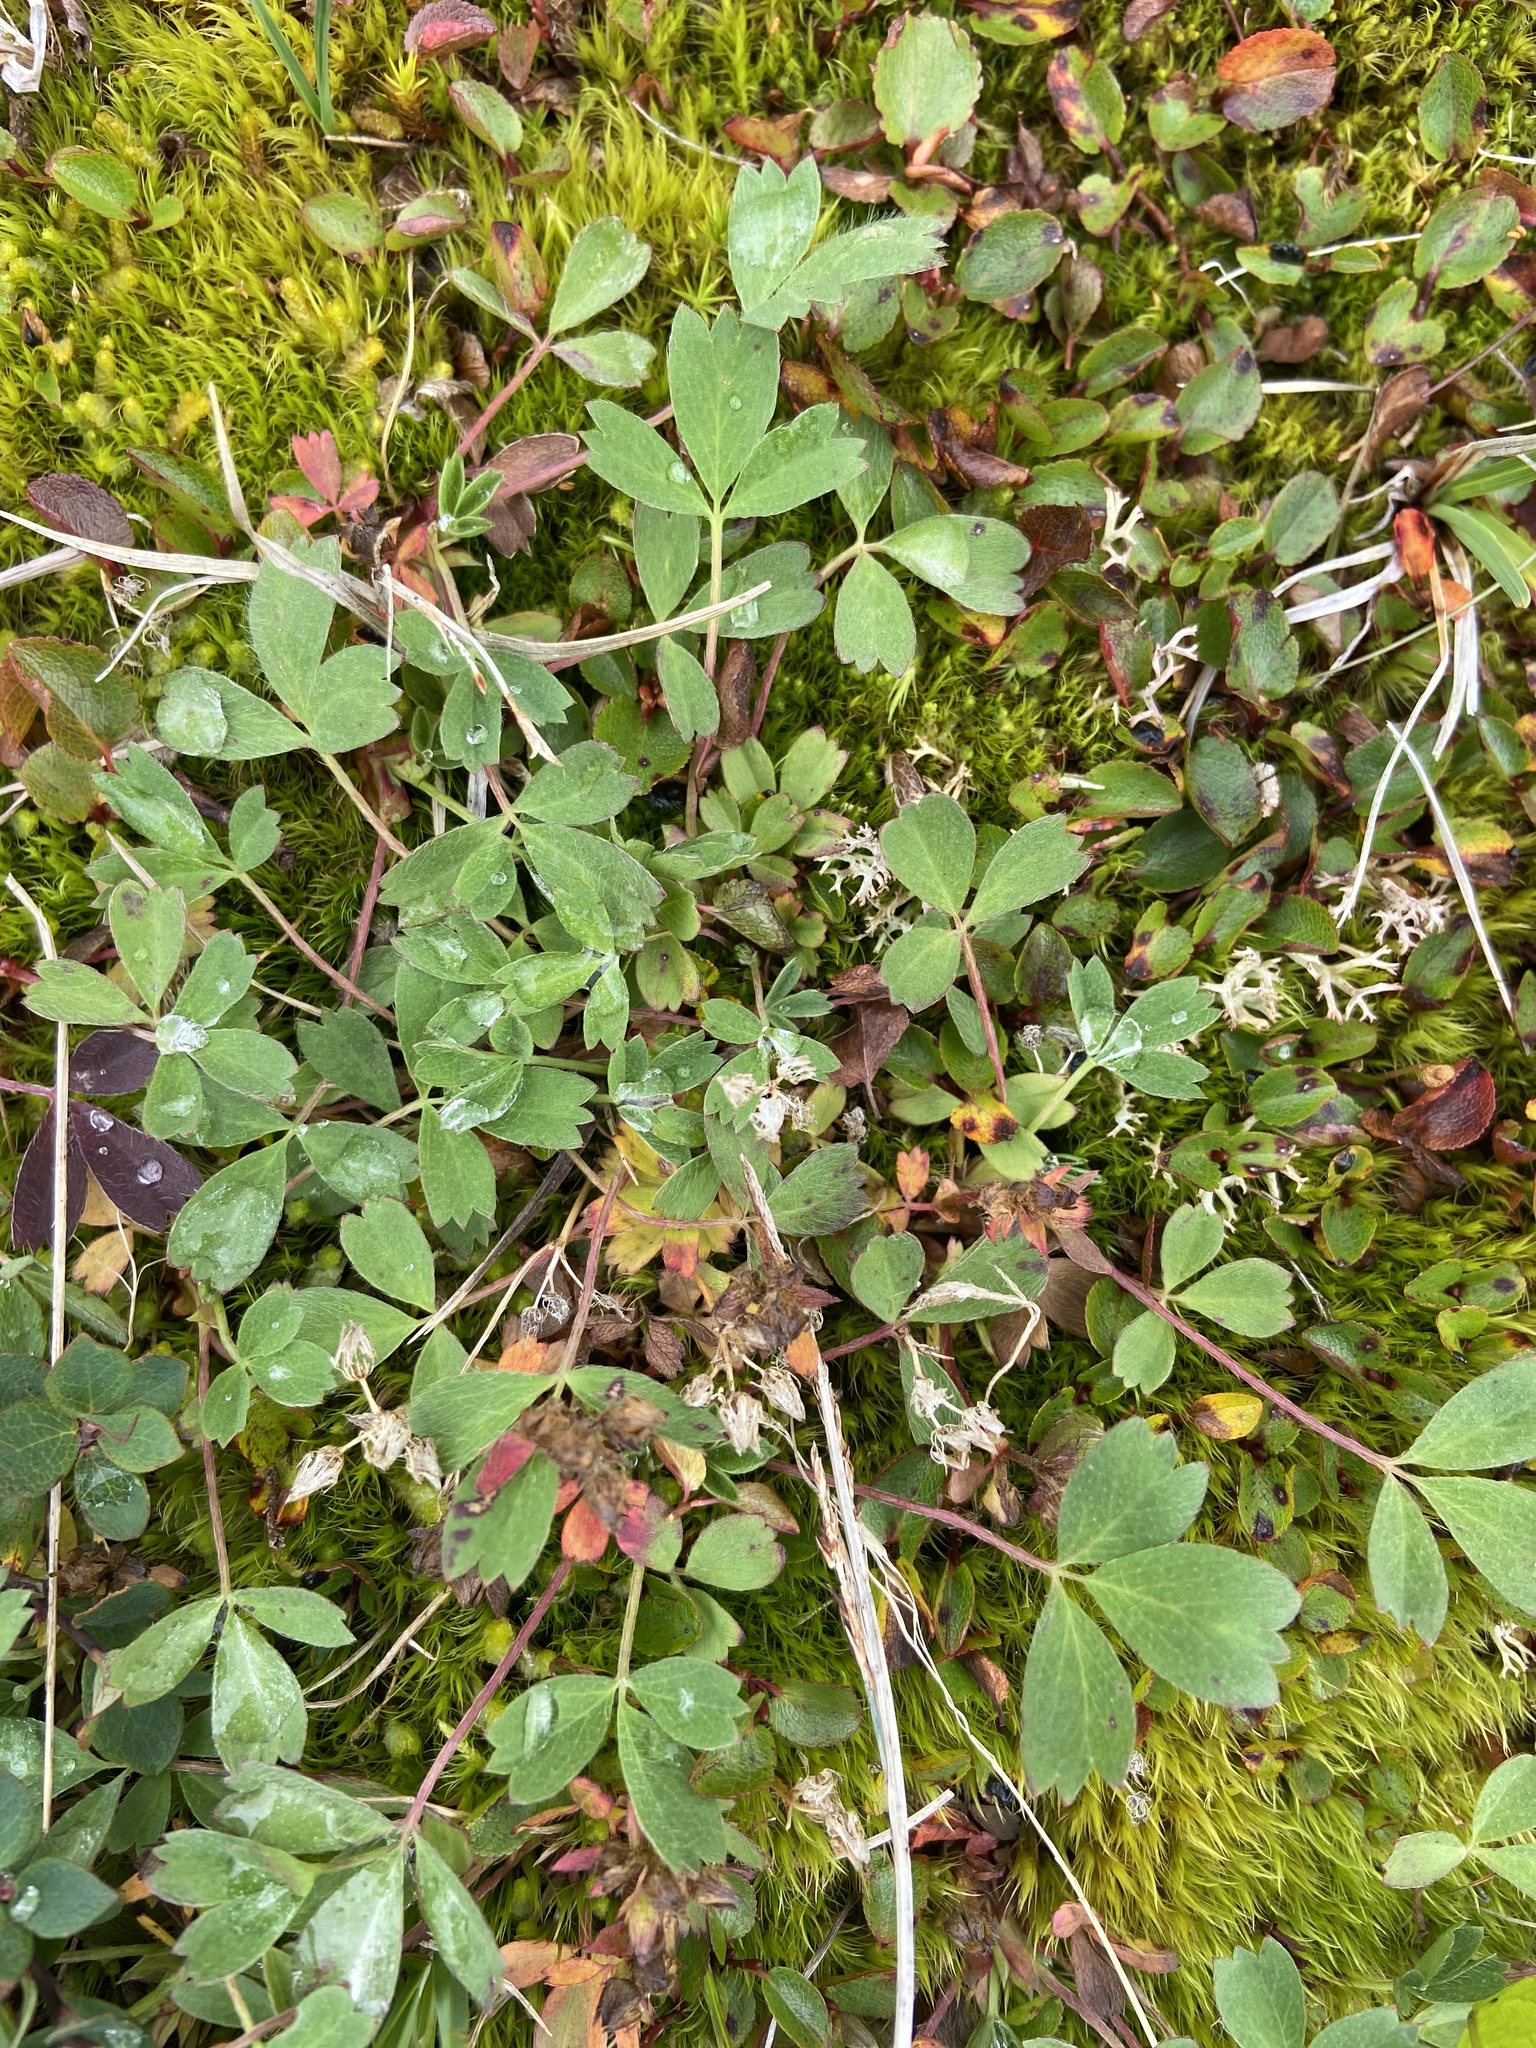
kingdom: Plantae
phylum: Tracheophyta
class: Magnoliopsida
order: Rosales
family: Rosaceae
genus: Sibbaldia
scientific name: Sibbaldia procumbens
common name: Creeping sibbaldia
